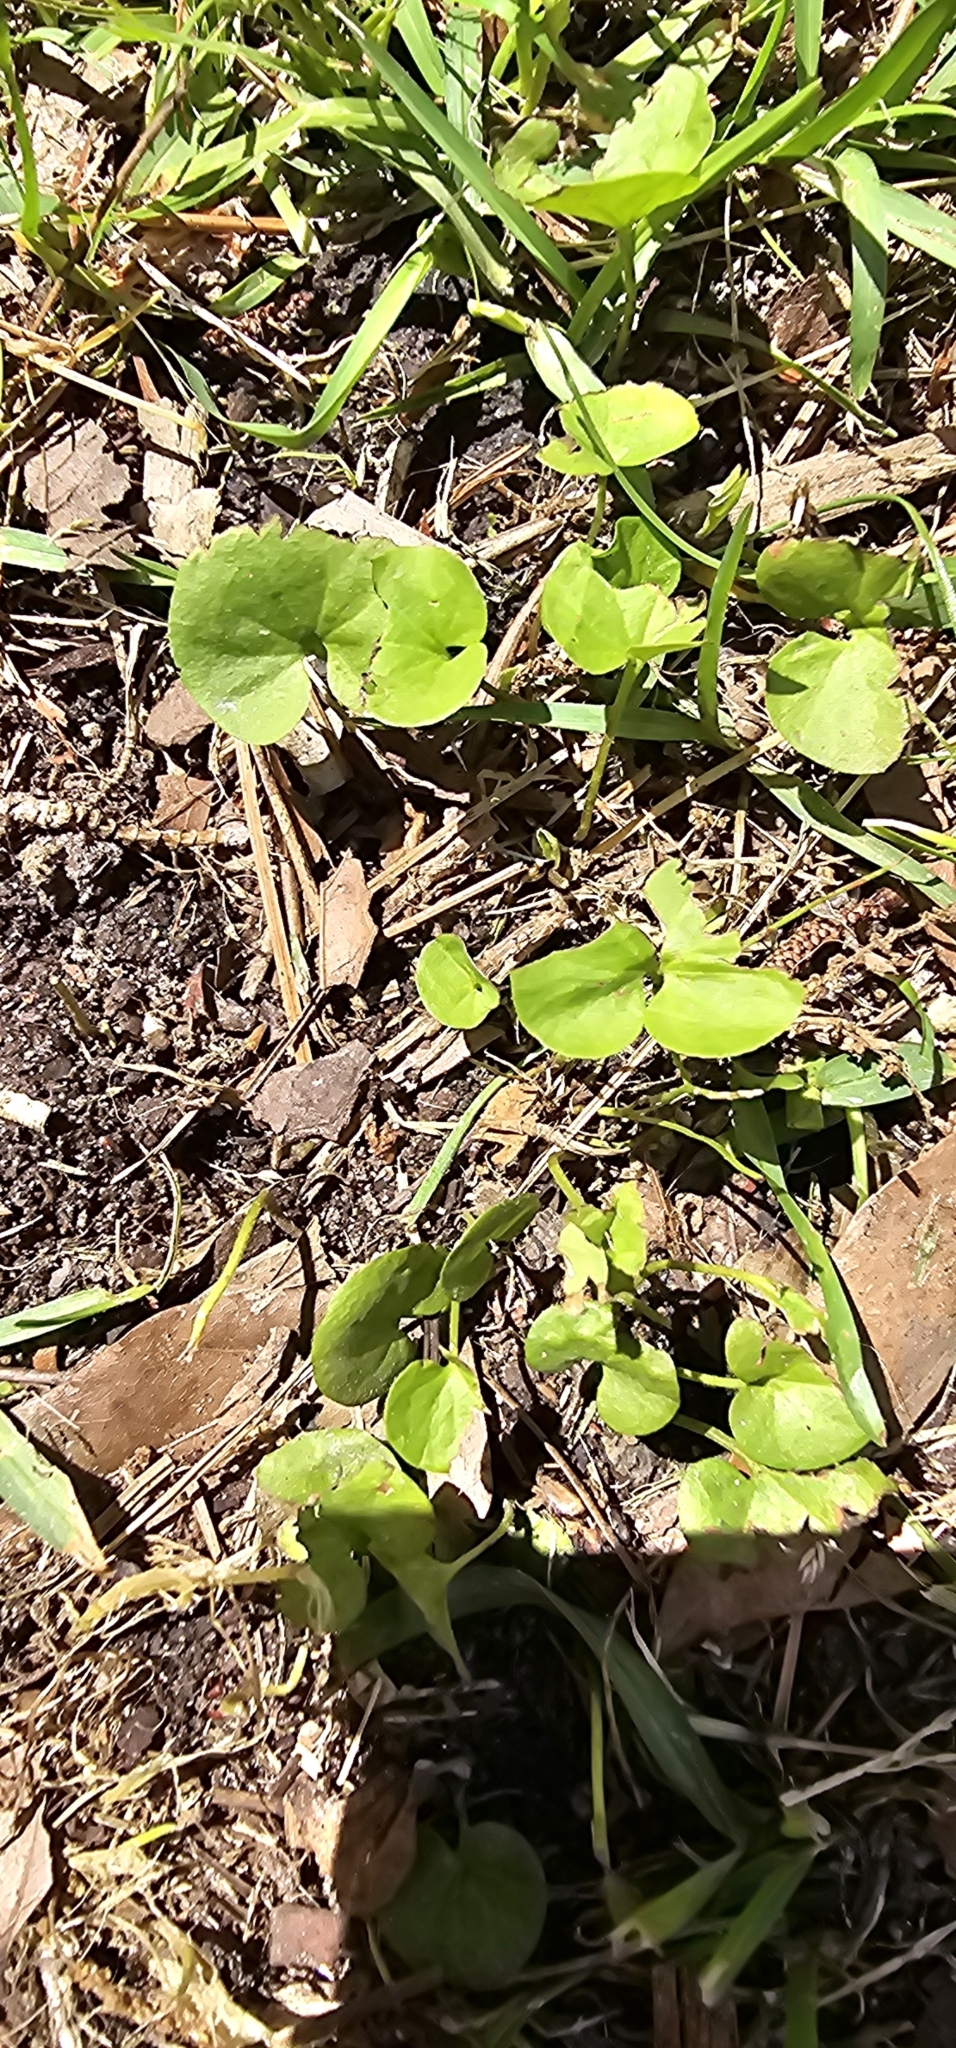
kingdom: Plantae
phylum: Tracheophyta
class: Magnoliopsida
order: Solanales
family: Convolvulaceae
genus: Dichondra
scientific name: Dichondra carolinensis
